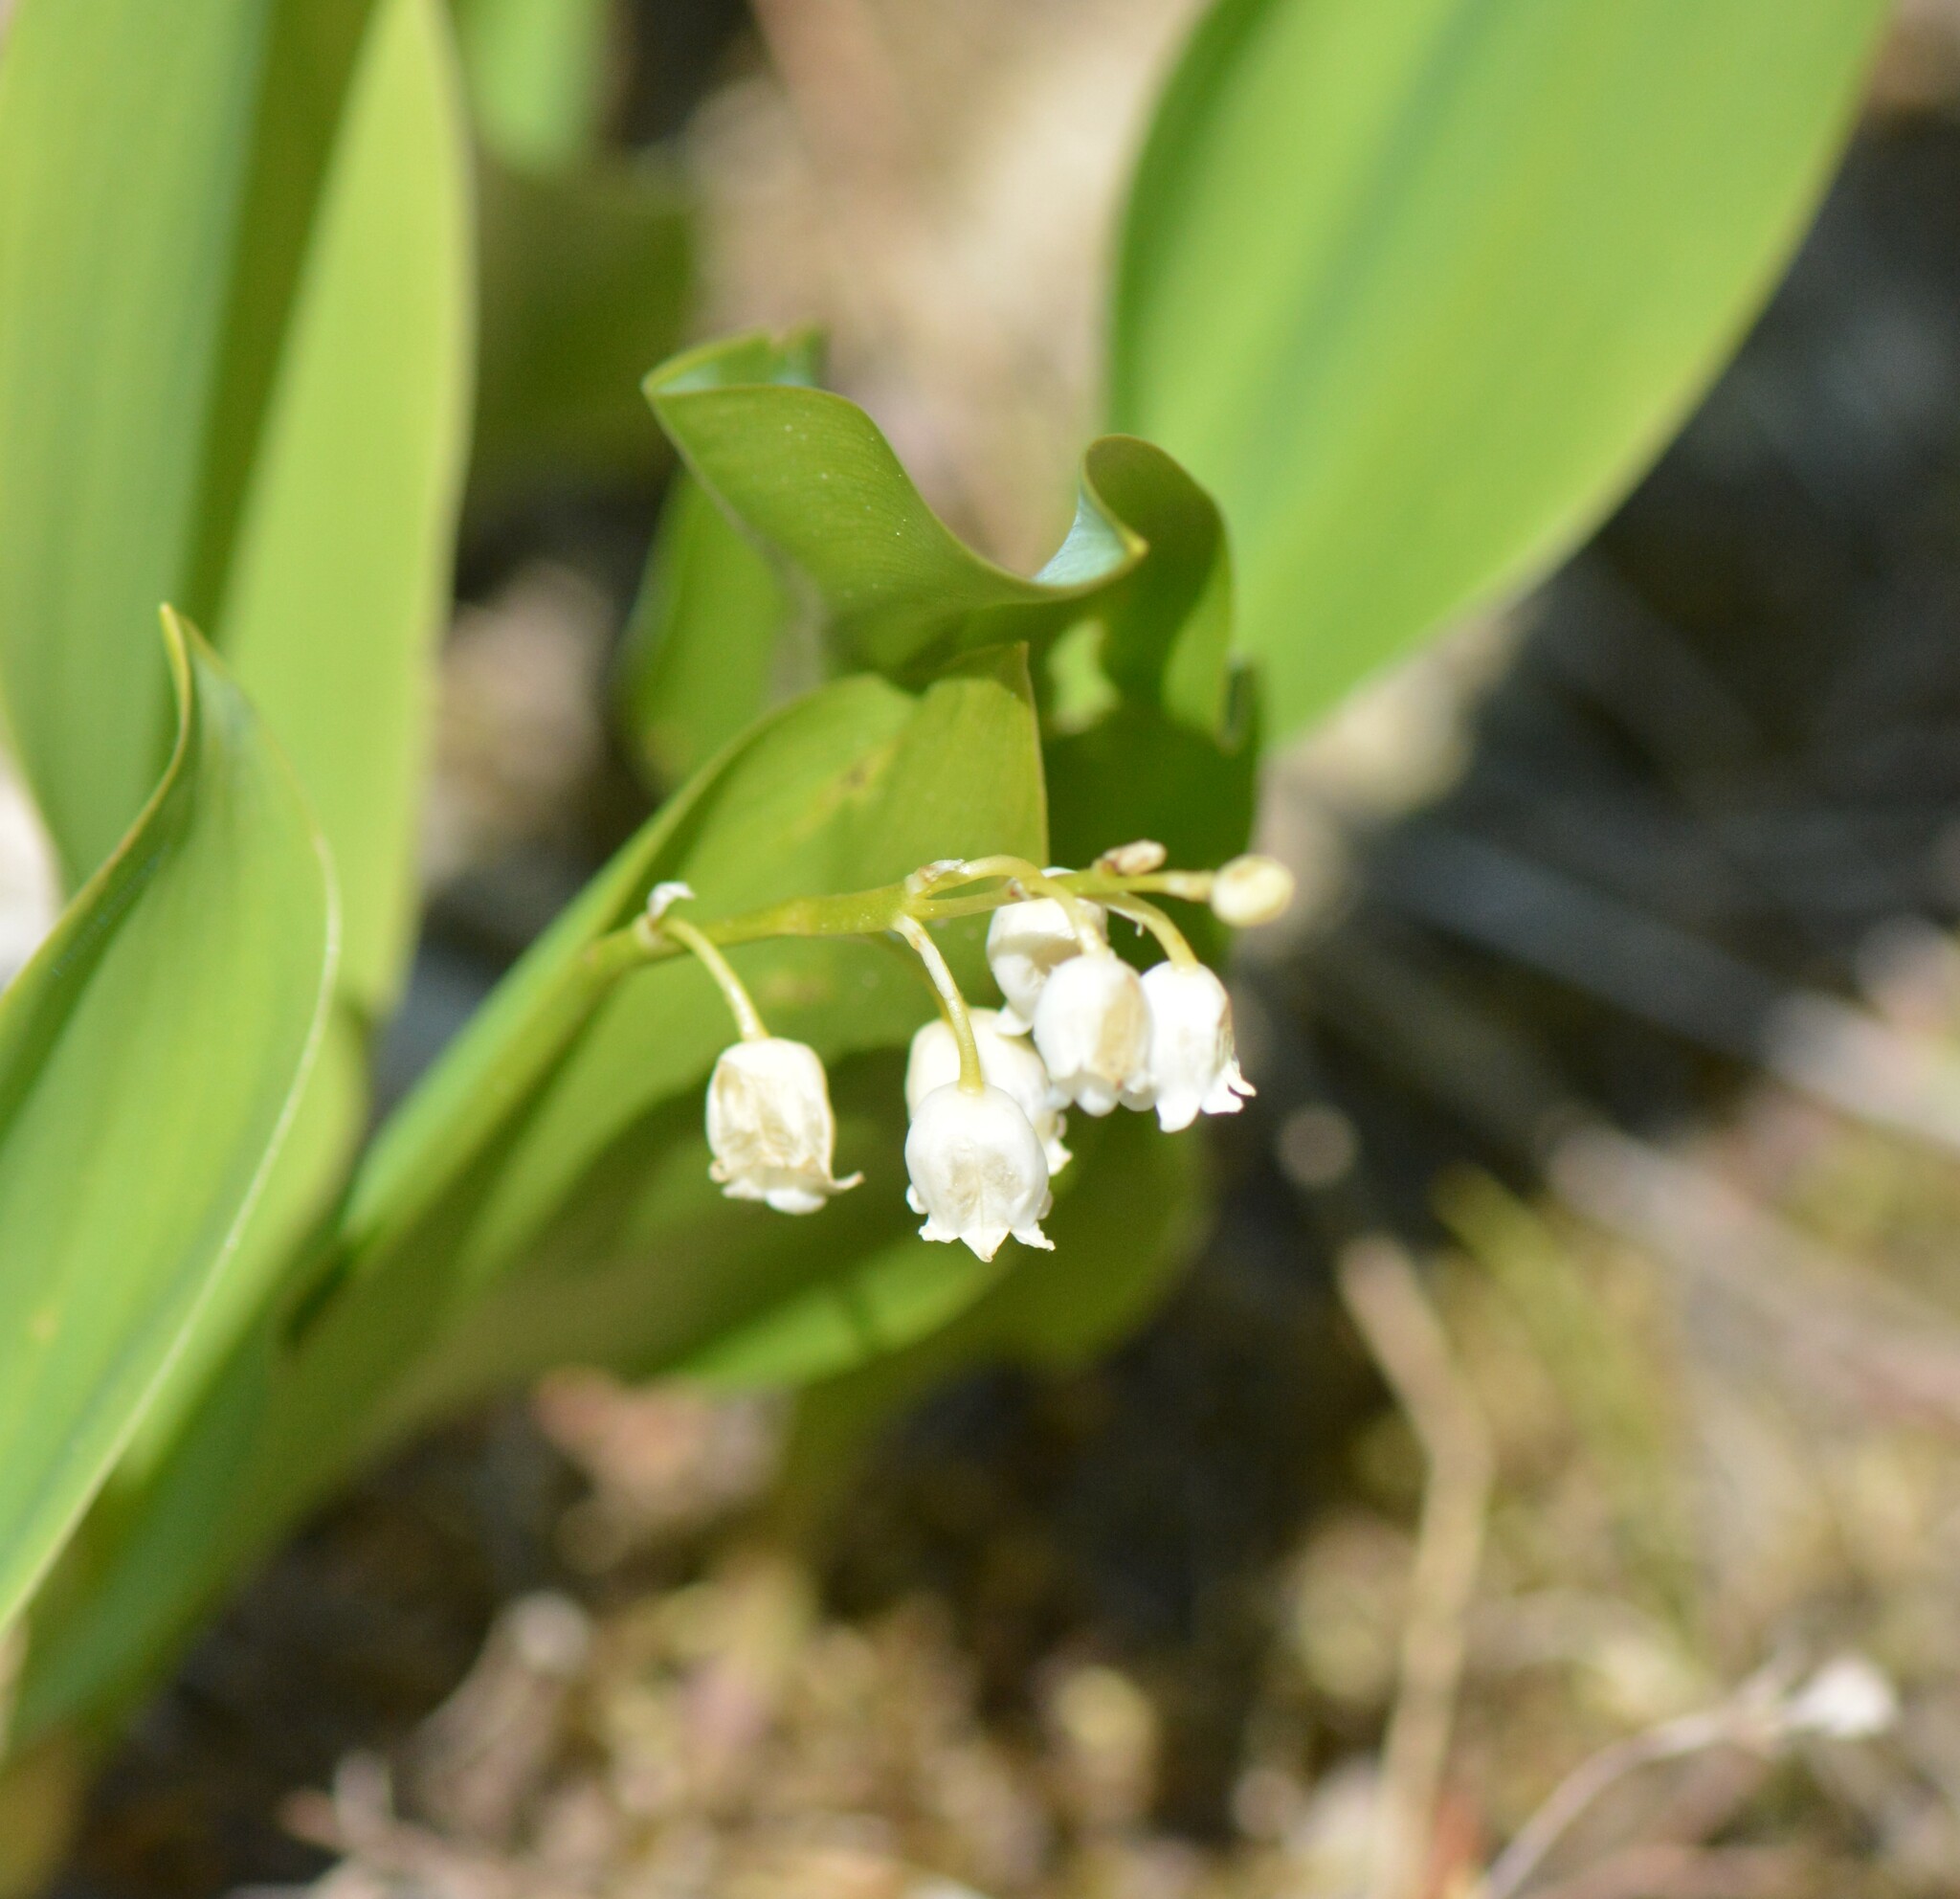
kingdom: Plantae
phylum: Tracheophyta
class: Liliopsida
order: Asparagales
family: Asparagaceae
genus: Convallaria
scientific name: Convallaria majalis
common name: Lily-of-the-valley
